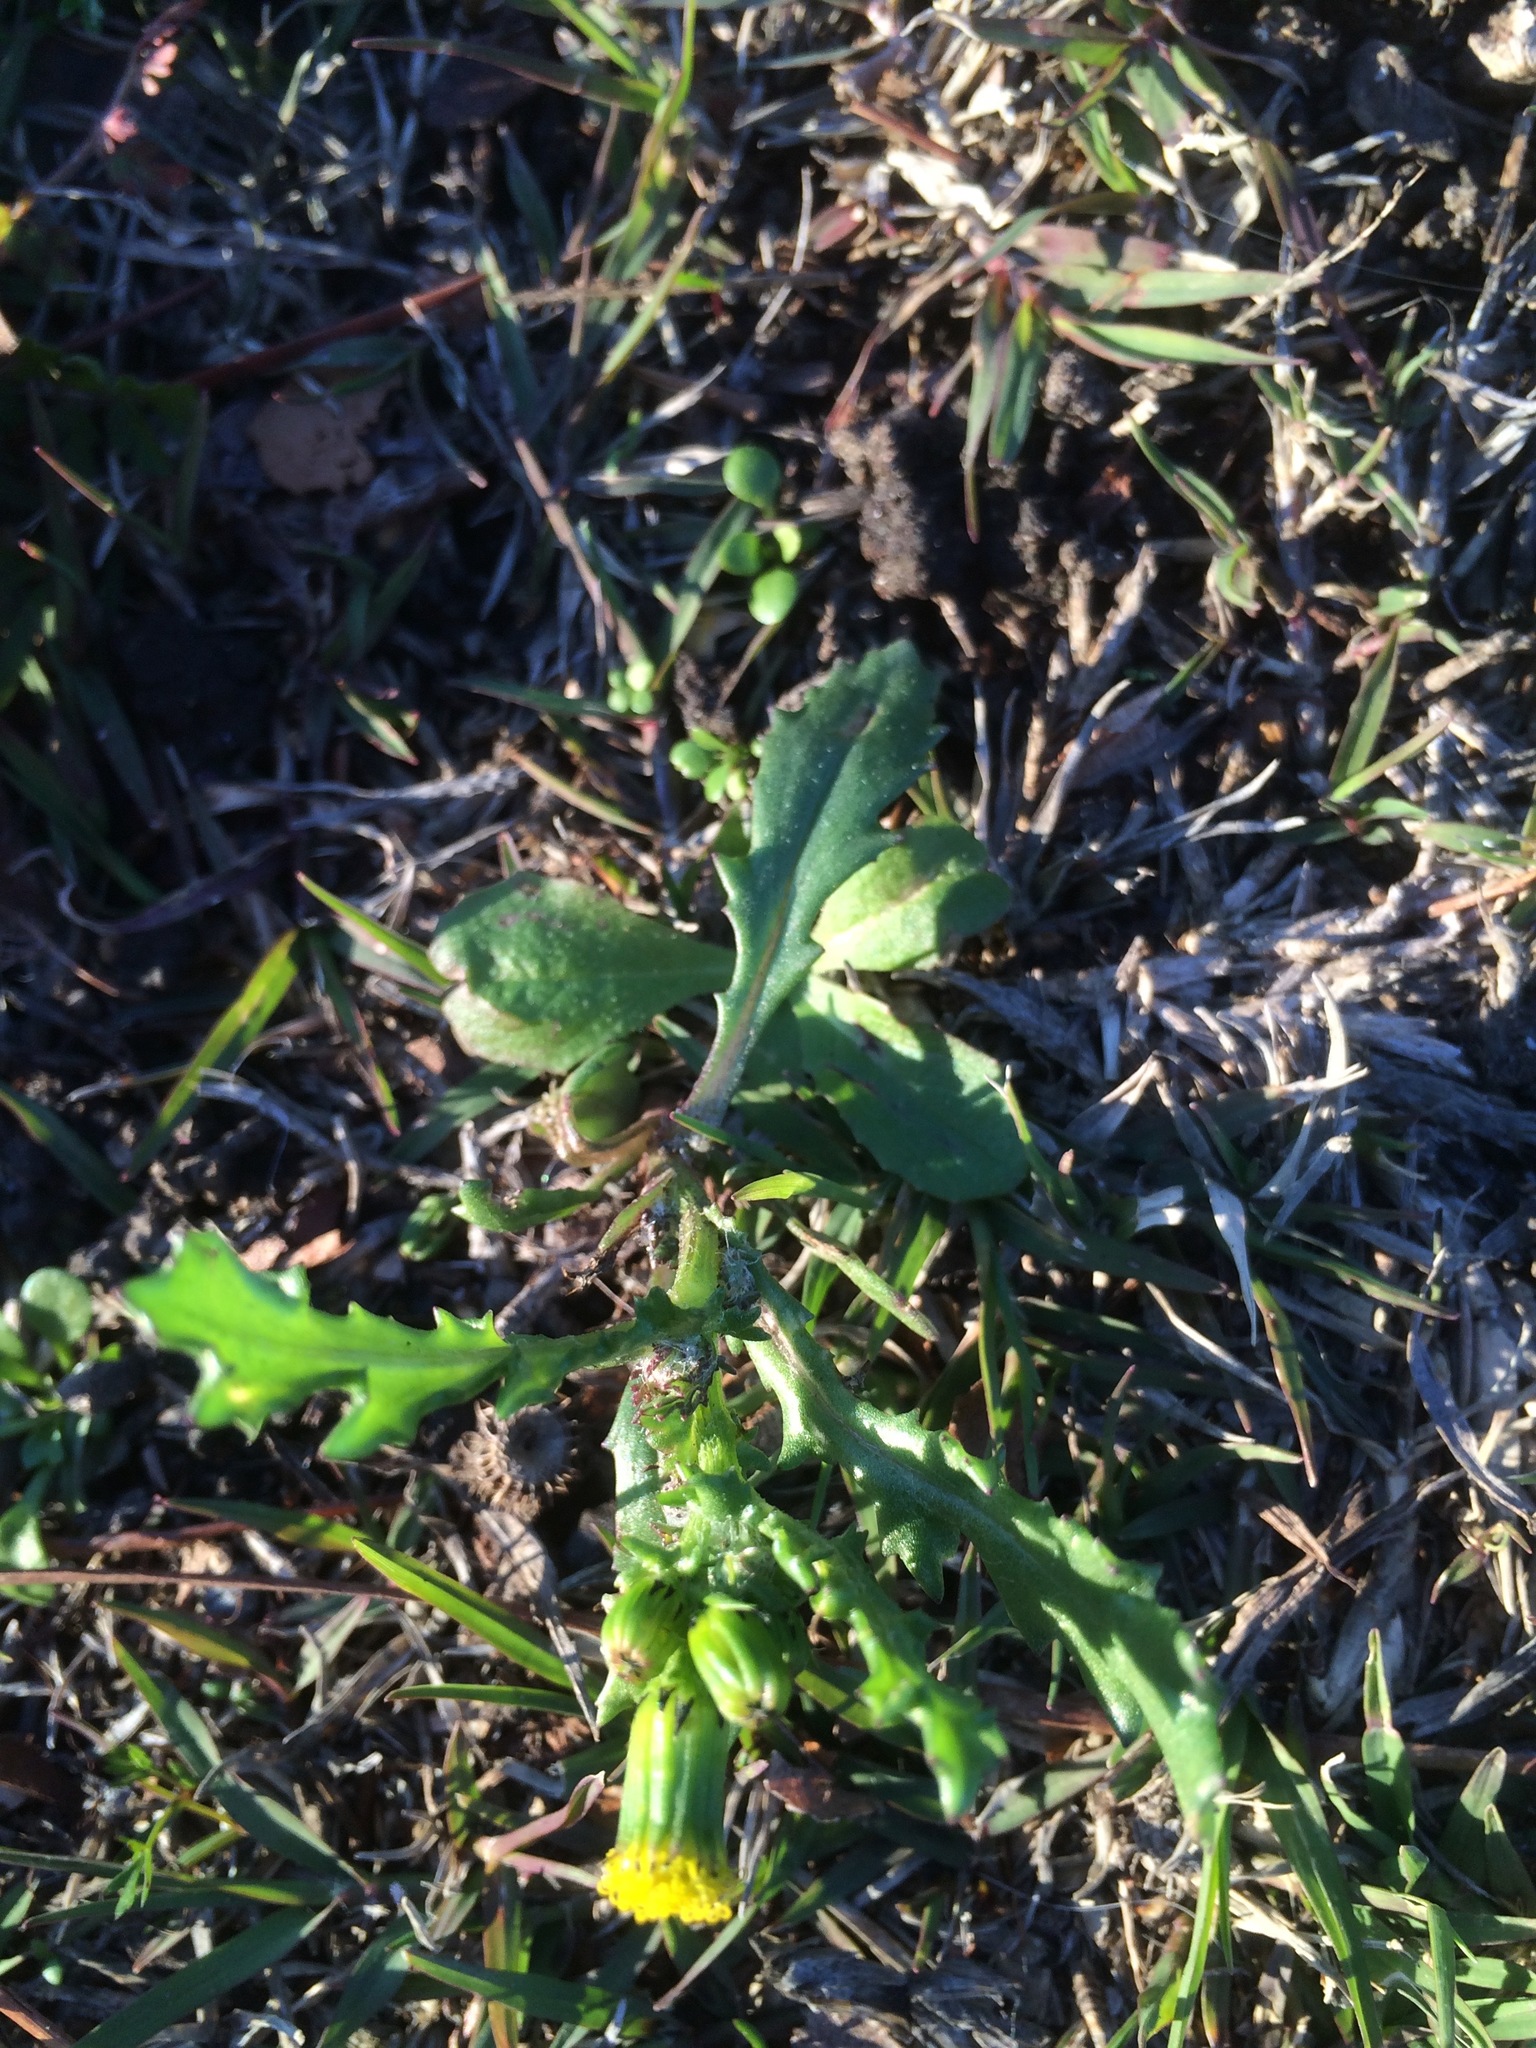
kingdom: Plantae
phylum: Tracheophyta
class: Magnoliopsida
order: Asterales
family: Asteraceae
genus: Senecio
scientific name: Senecio vulgaris
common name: Old-man-in-the-spring
